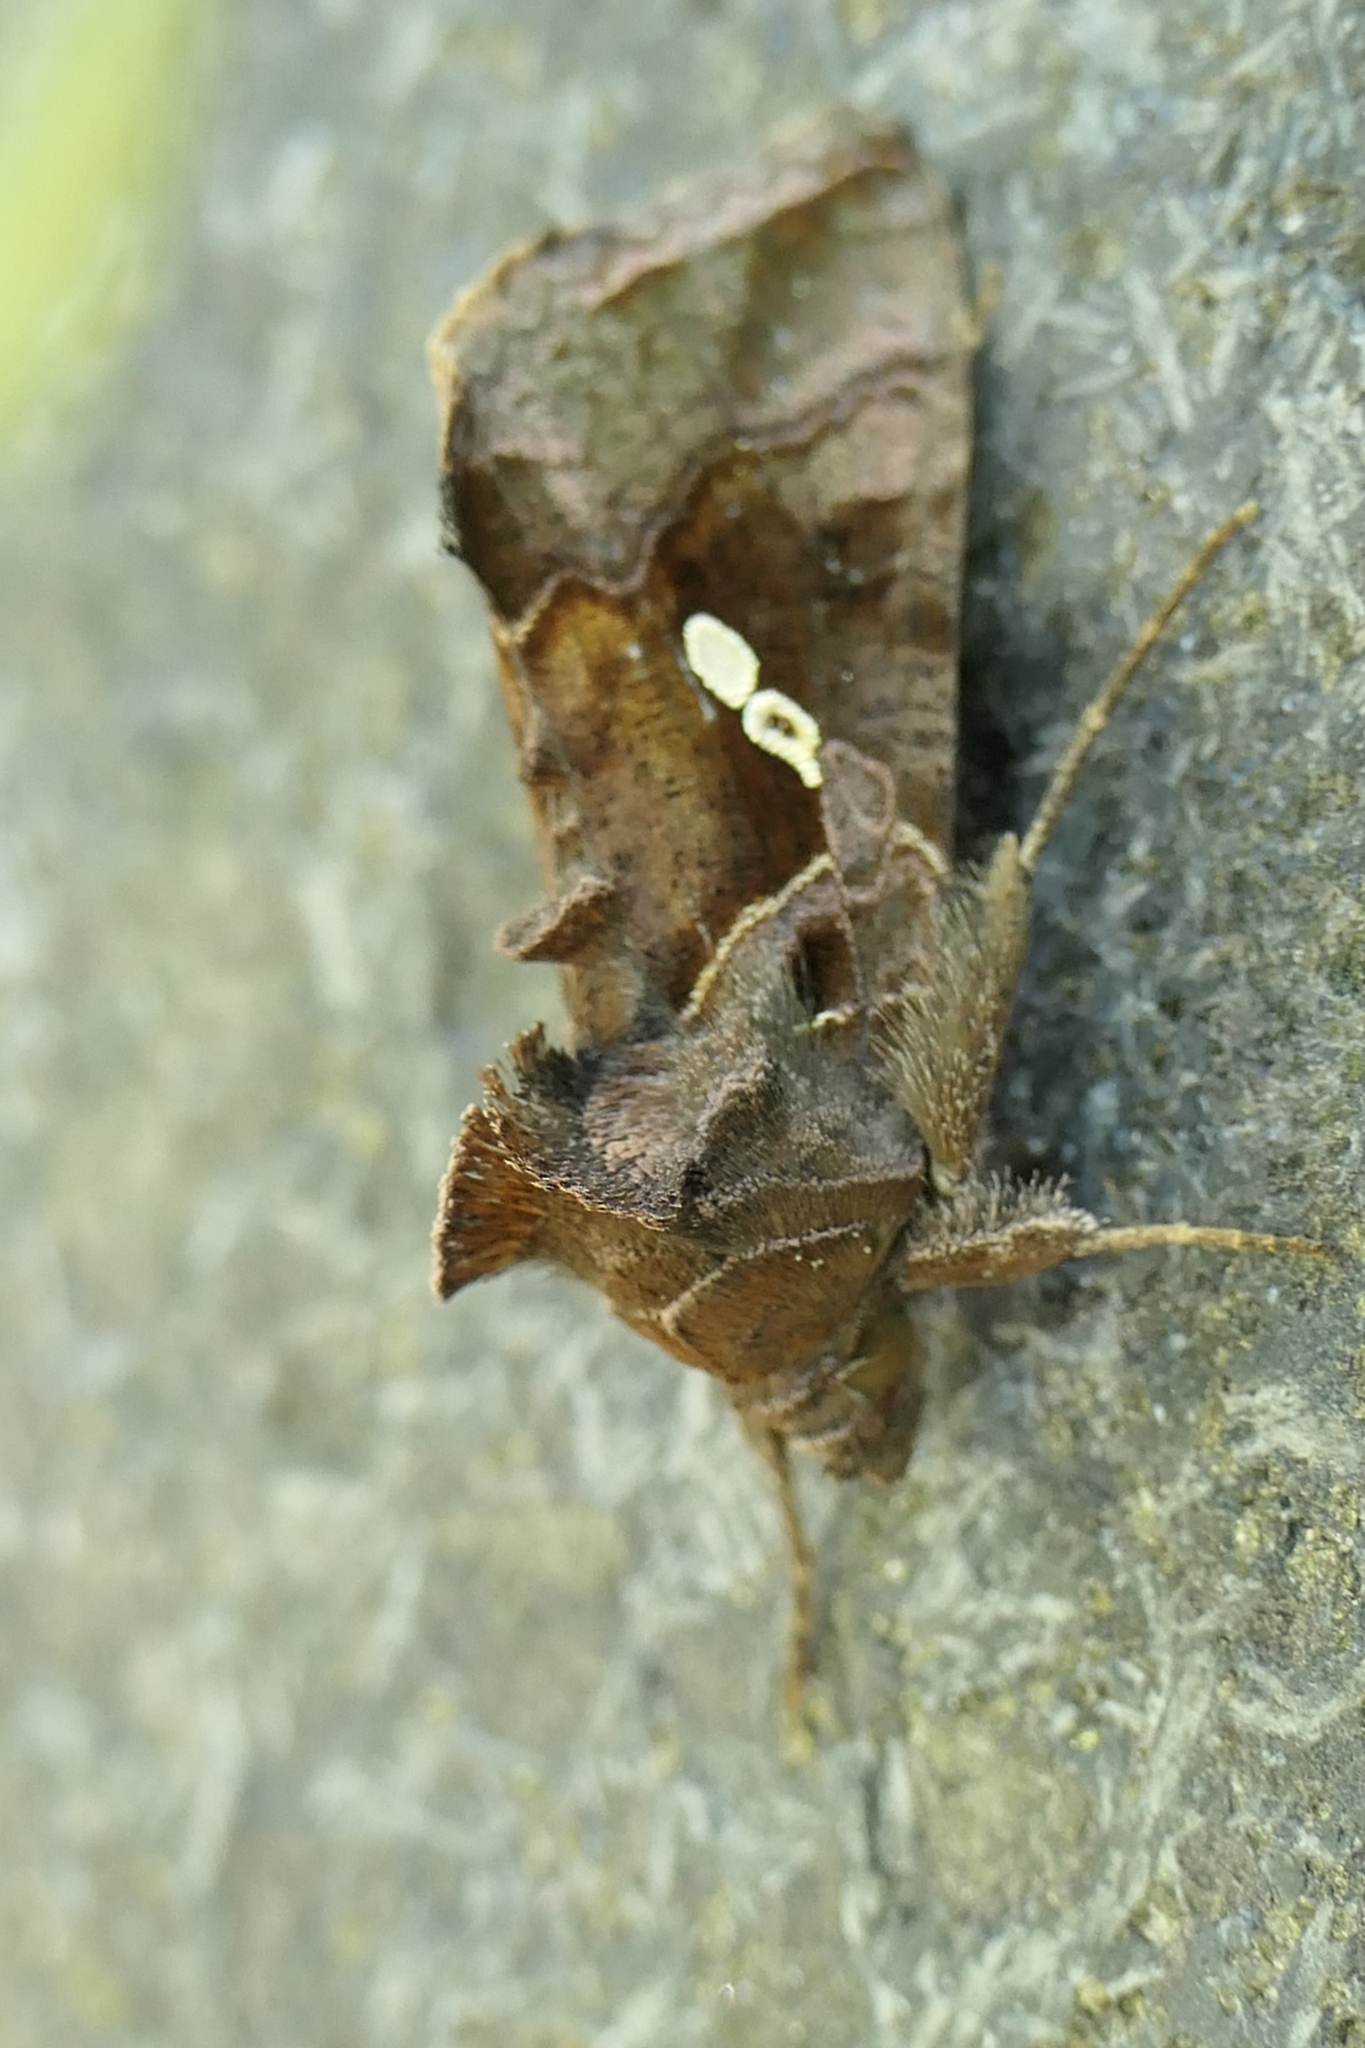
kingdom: Animalia
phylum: Arthropoda
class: Insecta
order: Lepidoptera
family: Noctuidae
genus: Chrysodeixis
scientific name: Chrysodeixis eriosoma
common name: Green garden looper
